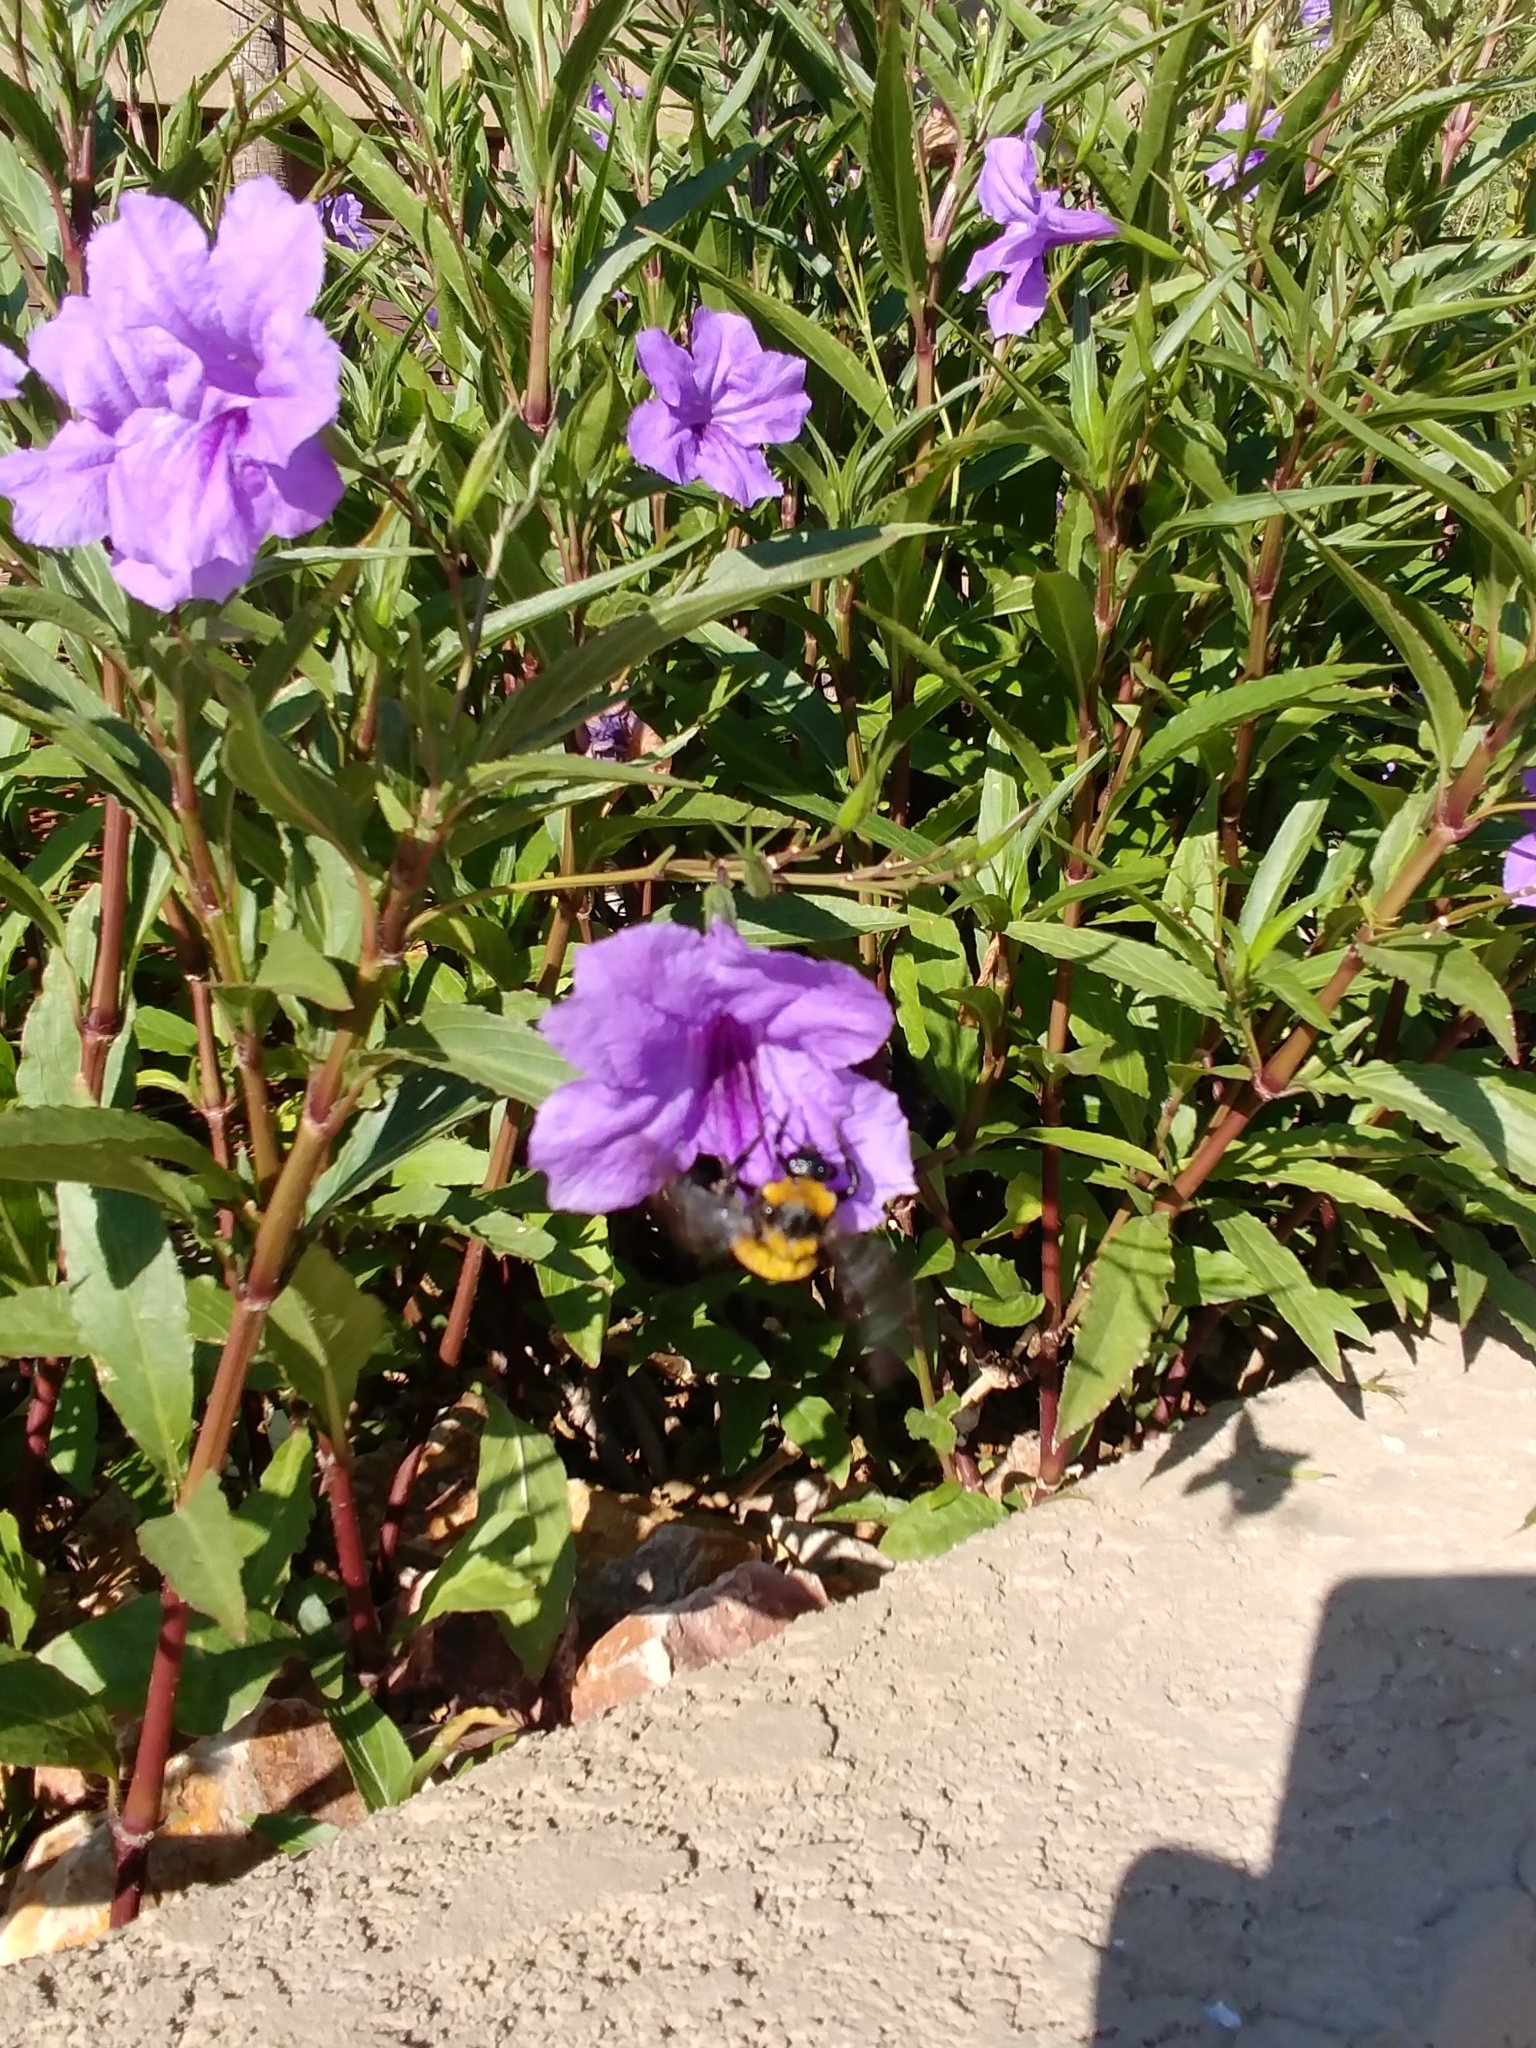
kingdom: Animalia
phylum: Arthropoda
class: Insecta
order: Hymenoptera
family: Apidae
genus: Bombus
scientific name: Bombus sonorus
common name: Sonoran bumble bee
